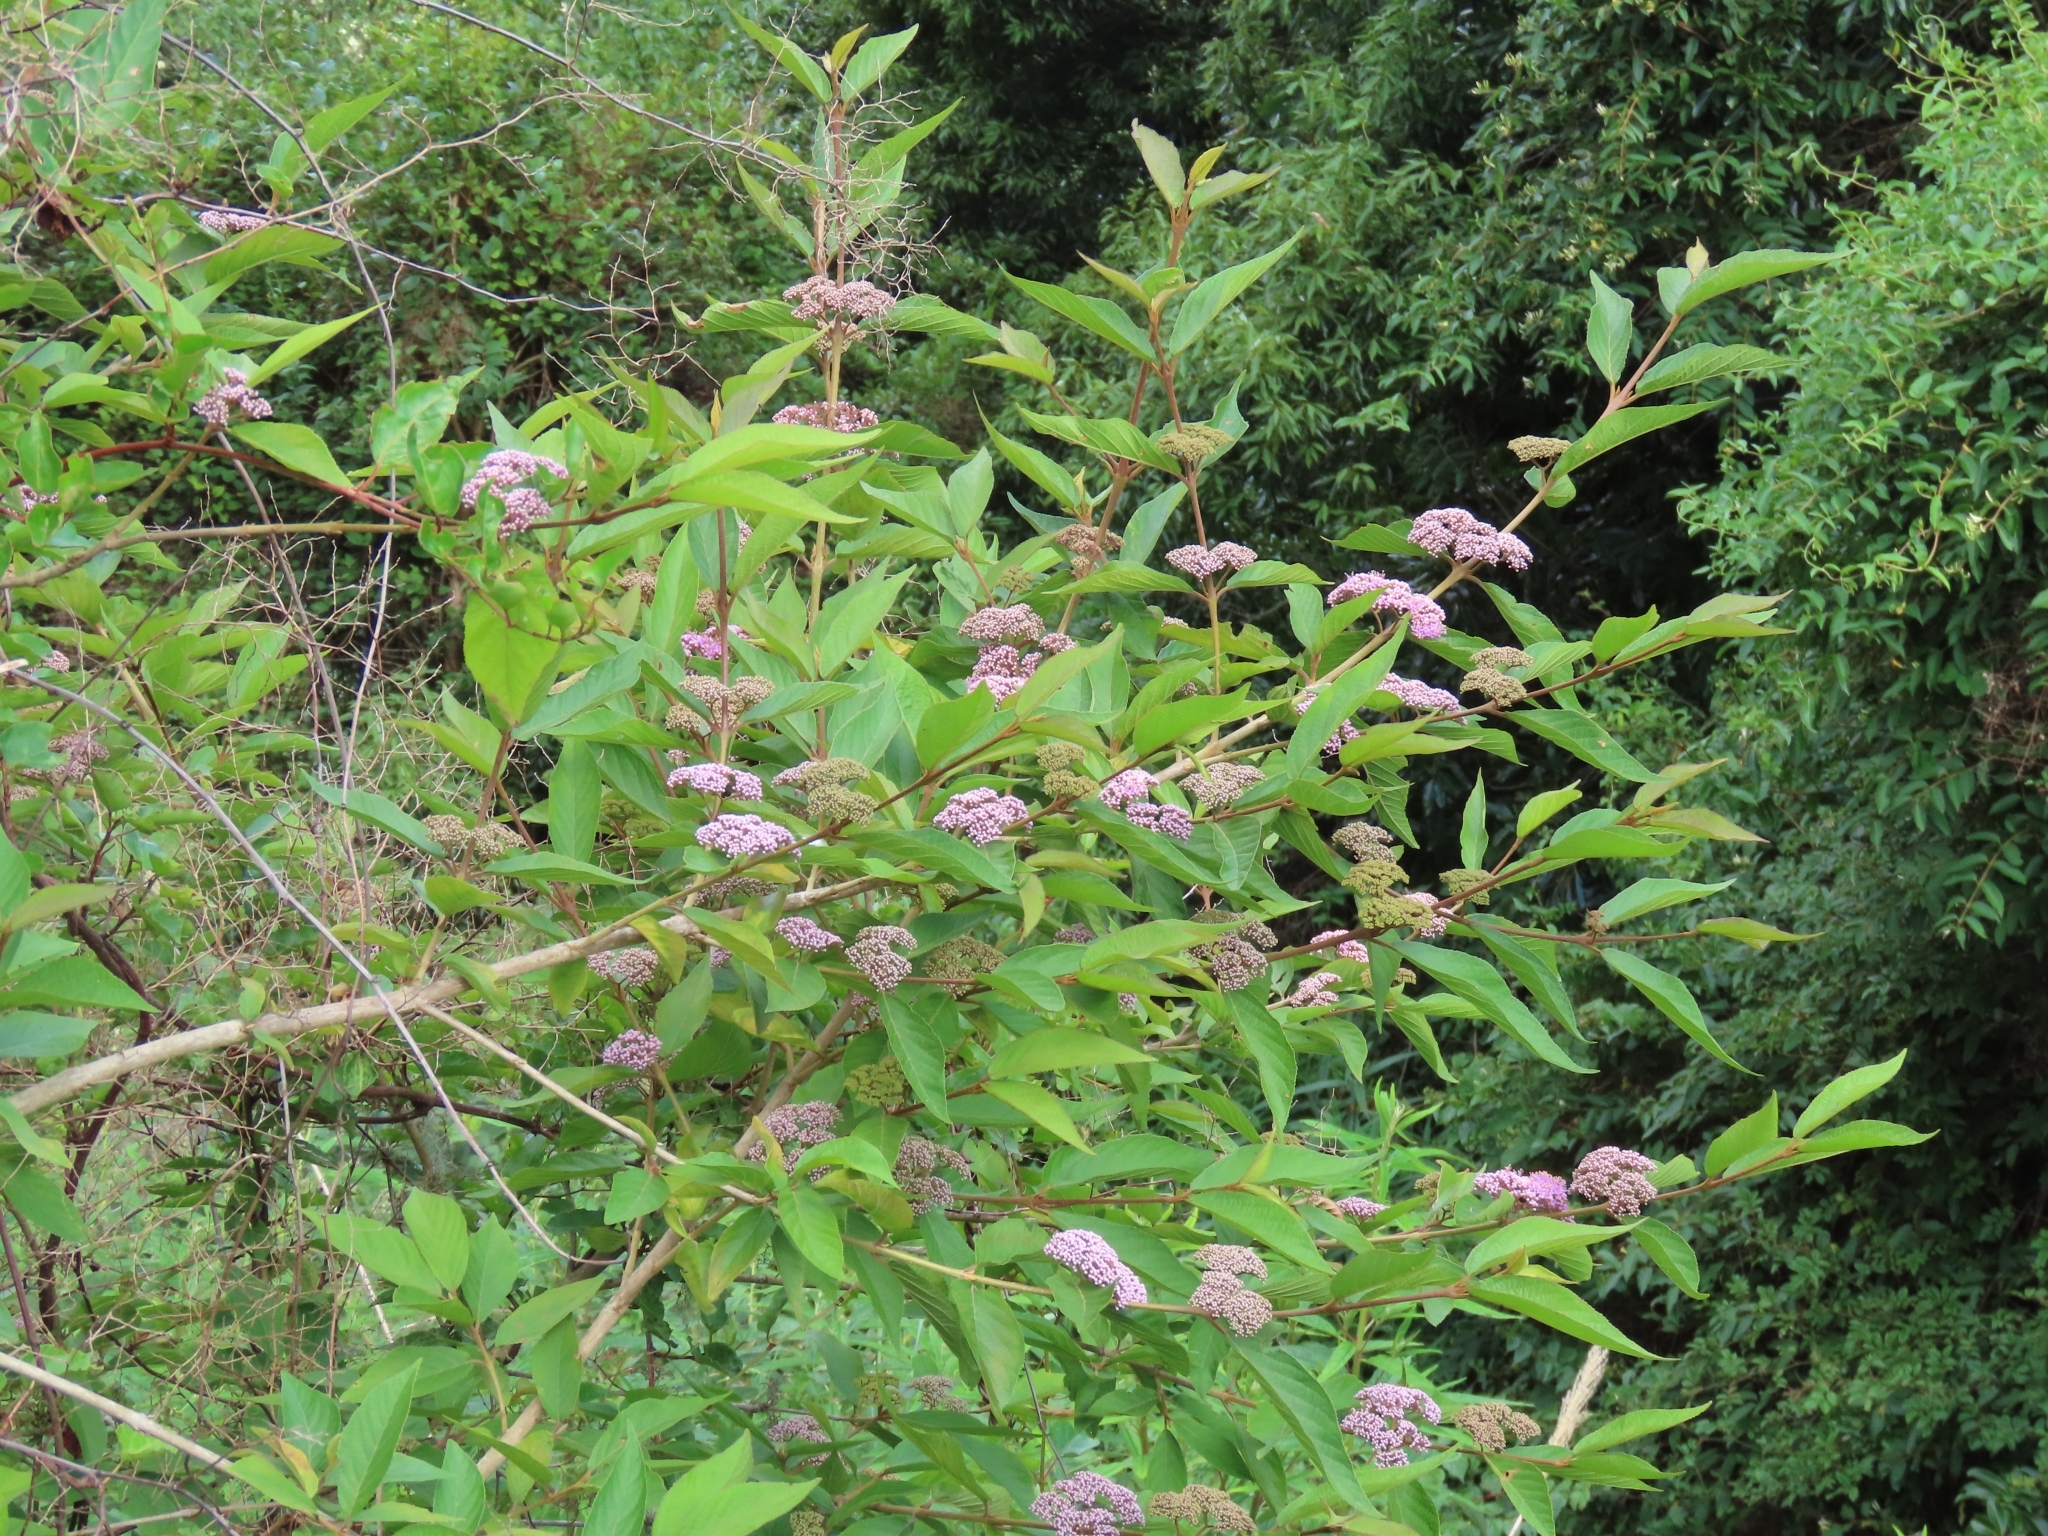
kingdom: Plantae
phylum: Tracheophyta
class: Magnoliopsida
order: Lamiales
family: Lamiaceae
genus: Callicarpa
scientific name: Callicarpa pedunculata
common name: Velvetleaf
